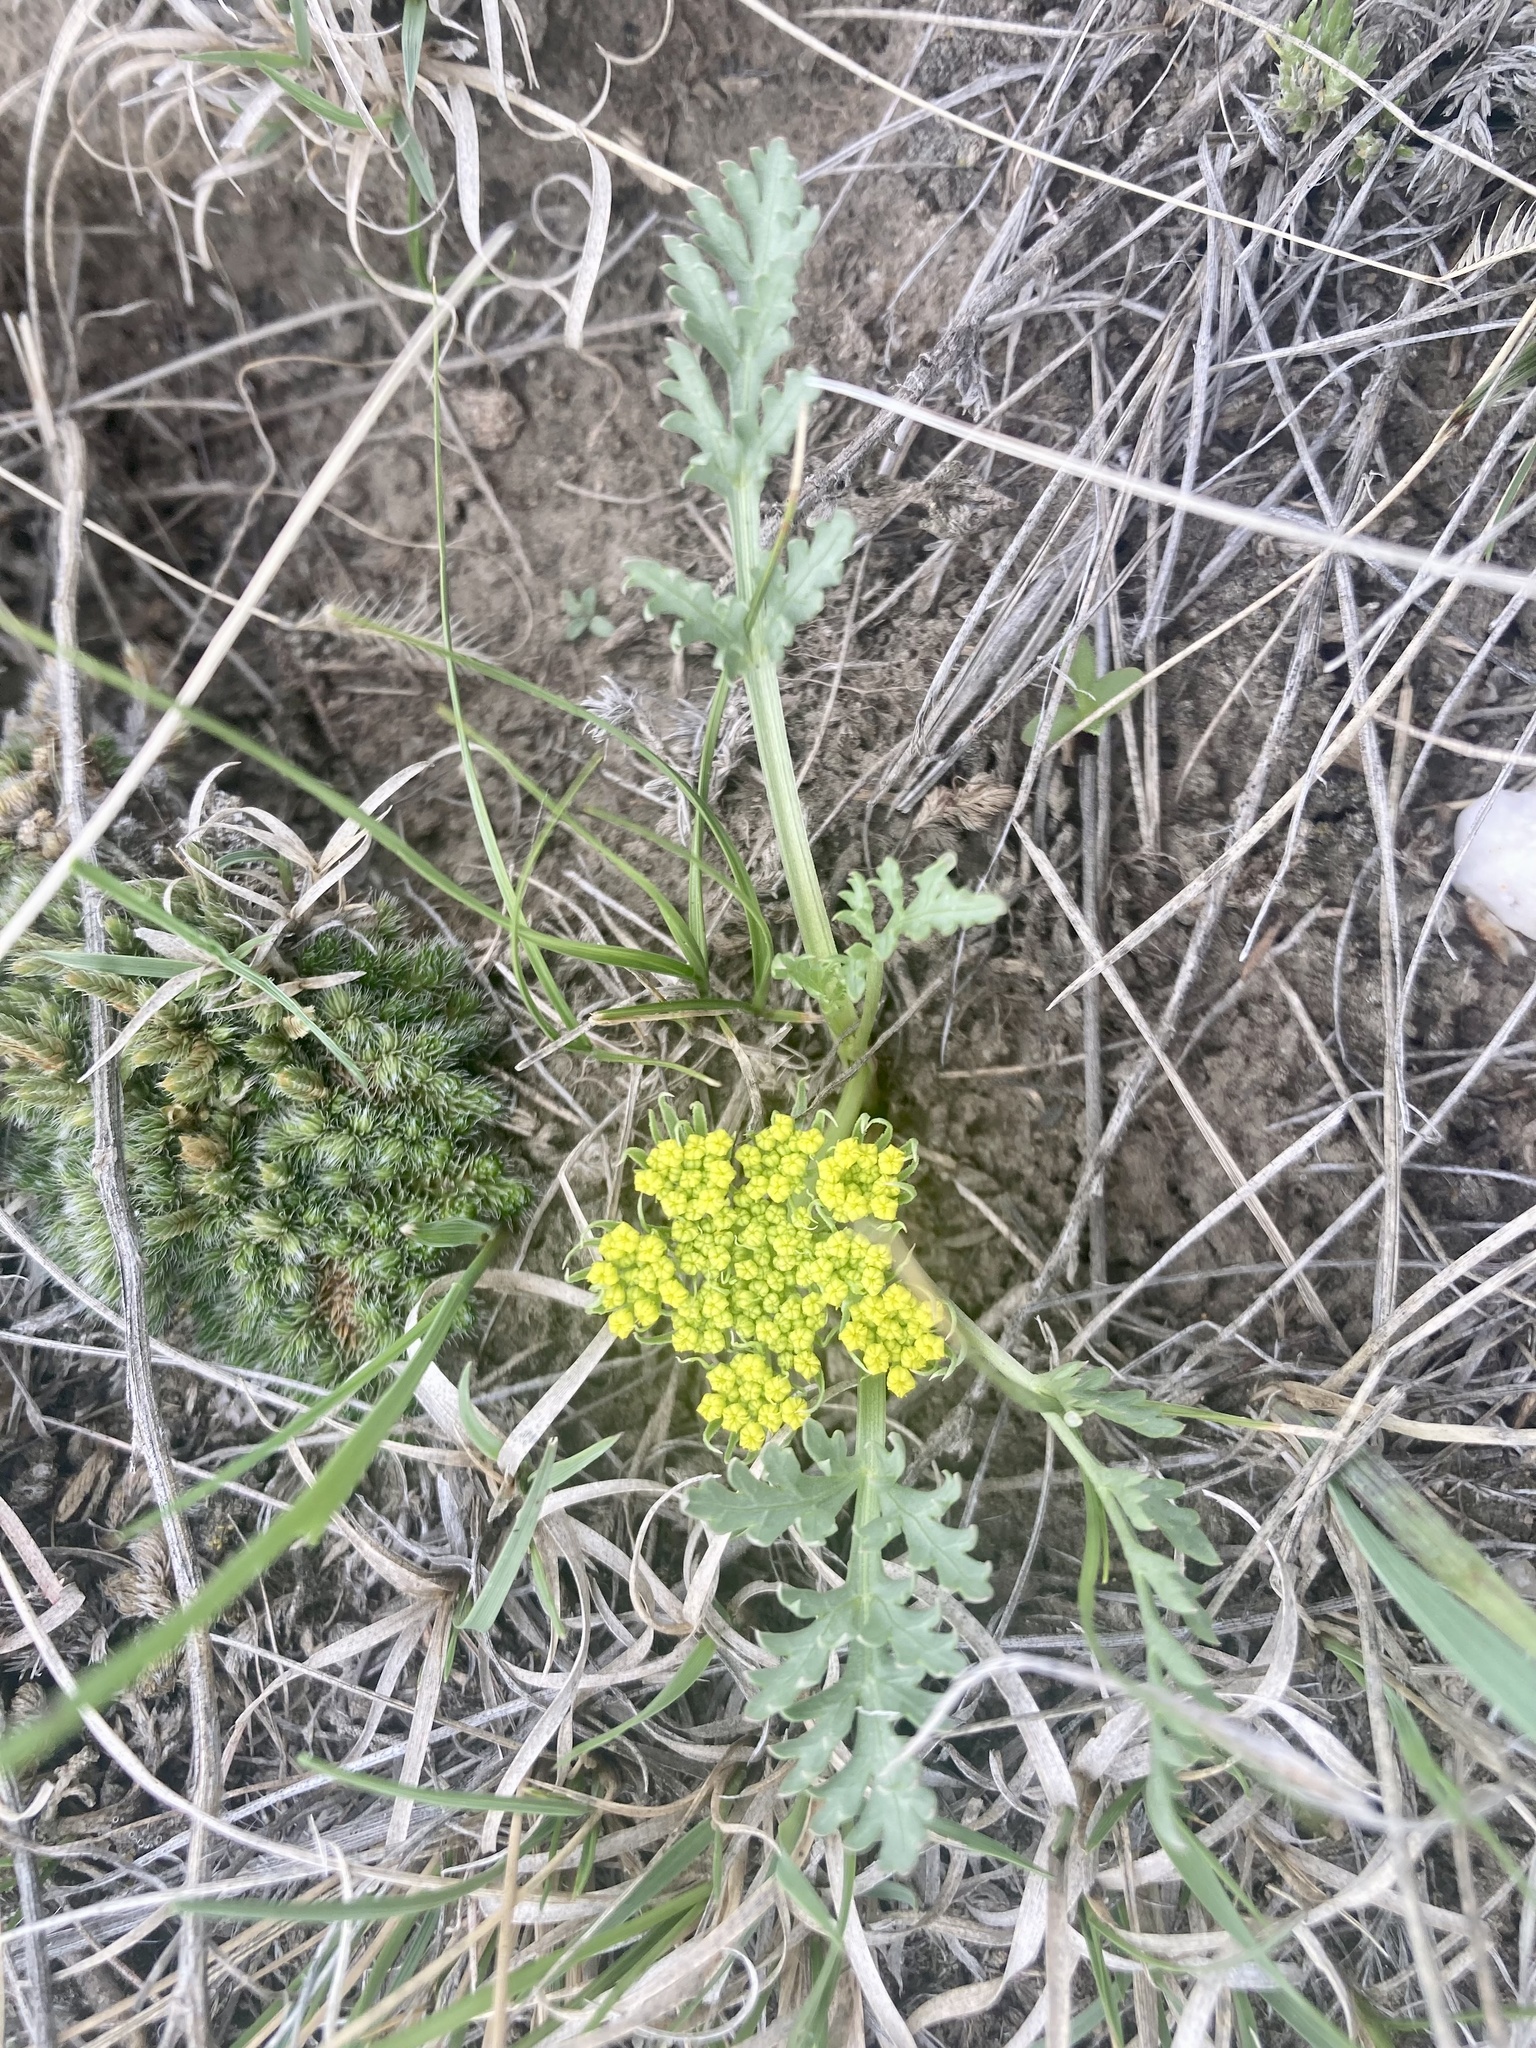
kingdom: Plantae
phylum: Tracheophyta
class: Magnoliopsida
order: Apiales
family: Apiaceae
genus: Musineon
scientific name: Musineon divaricatum
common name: Plains musineon
